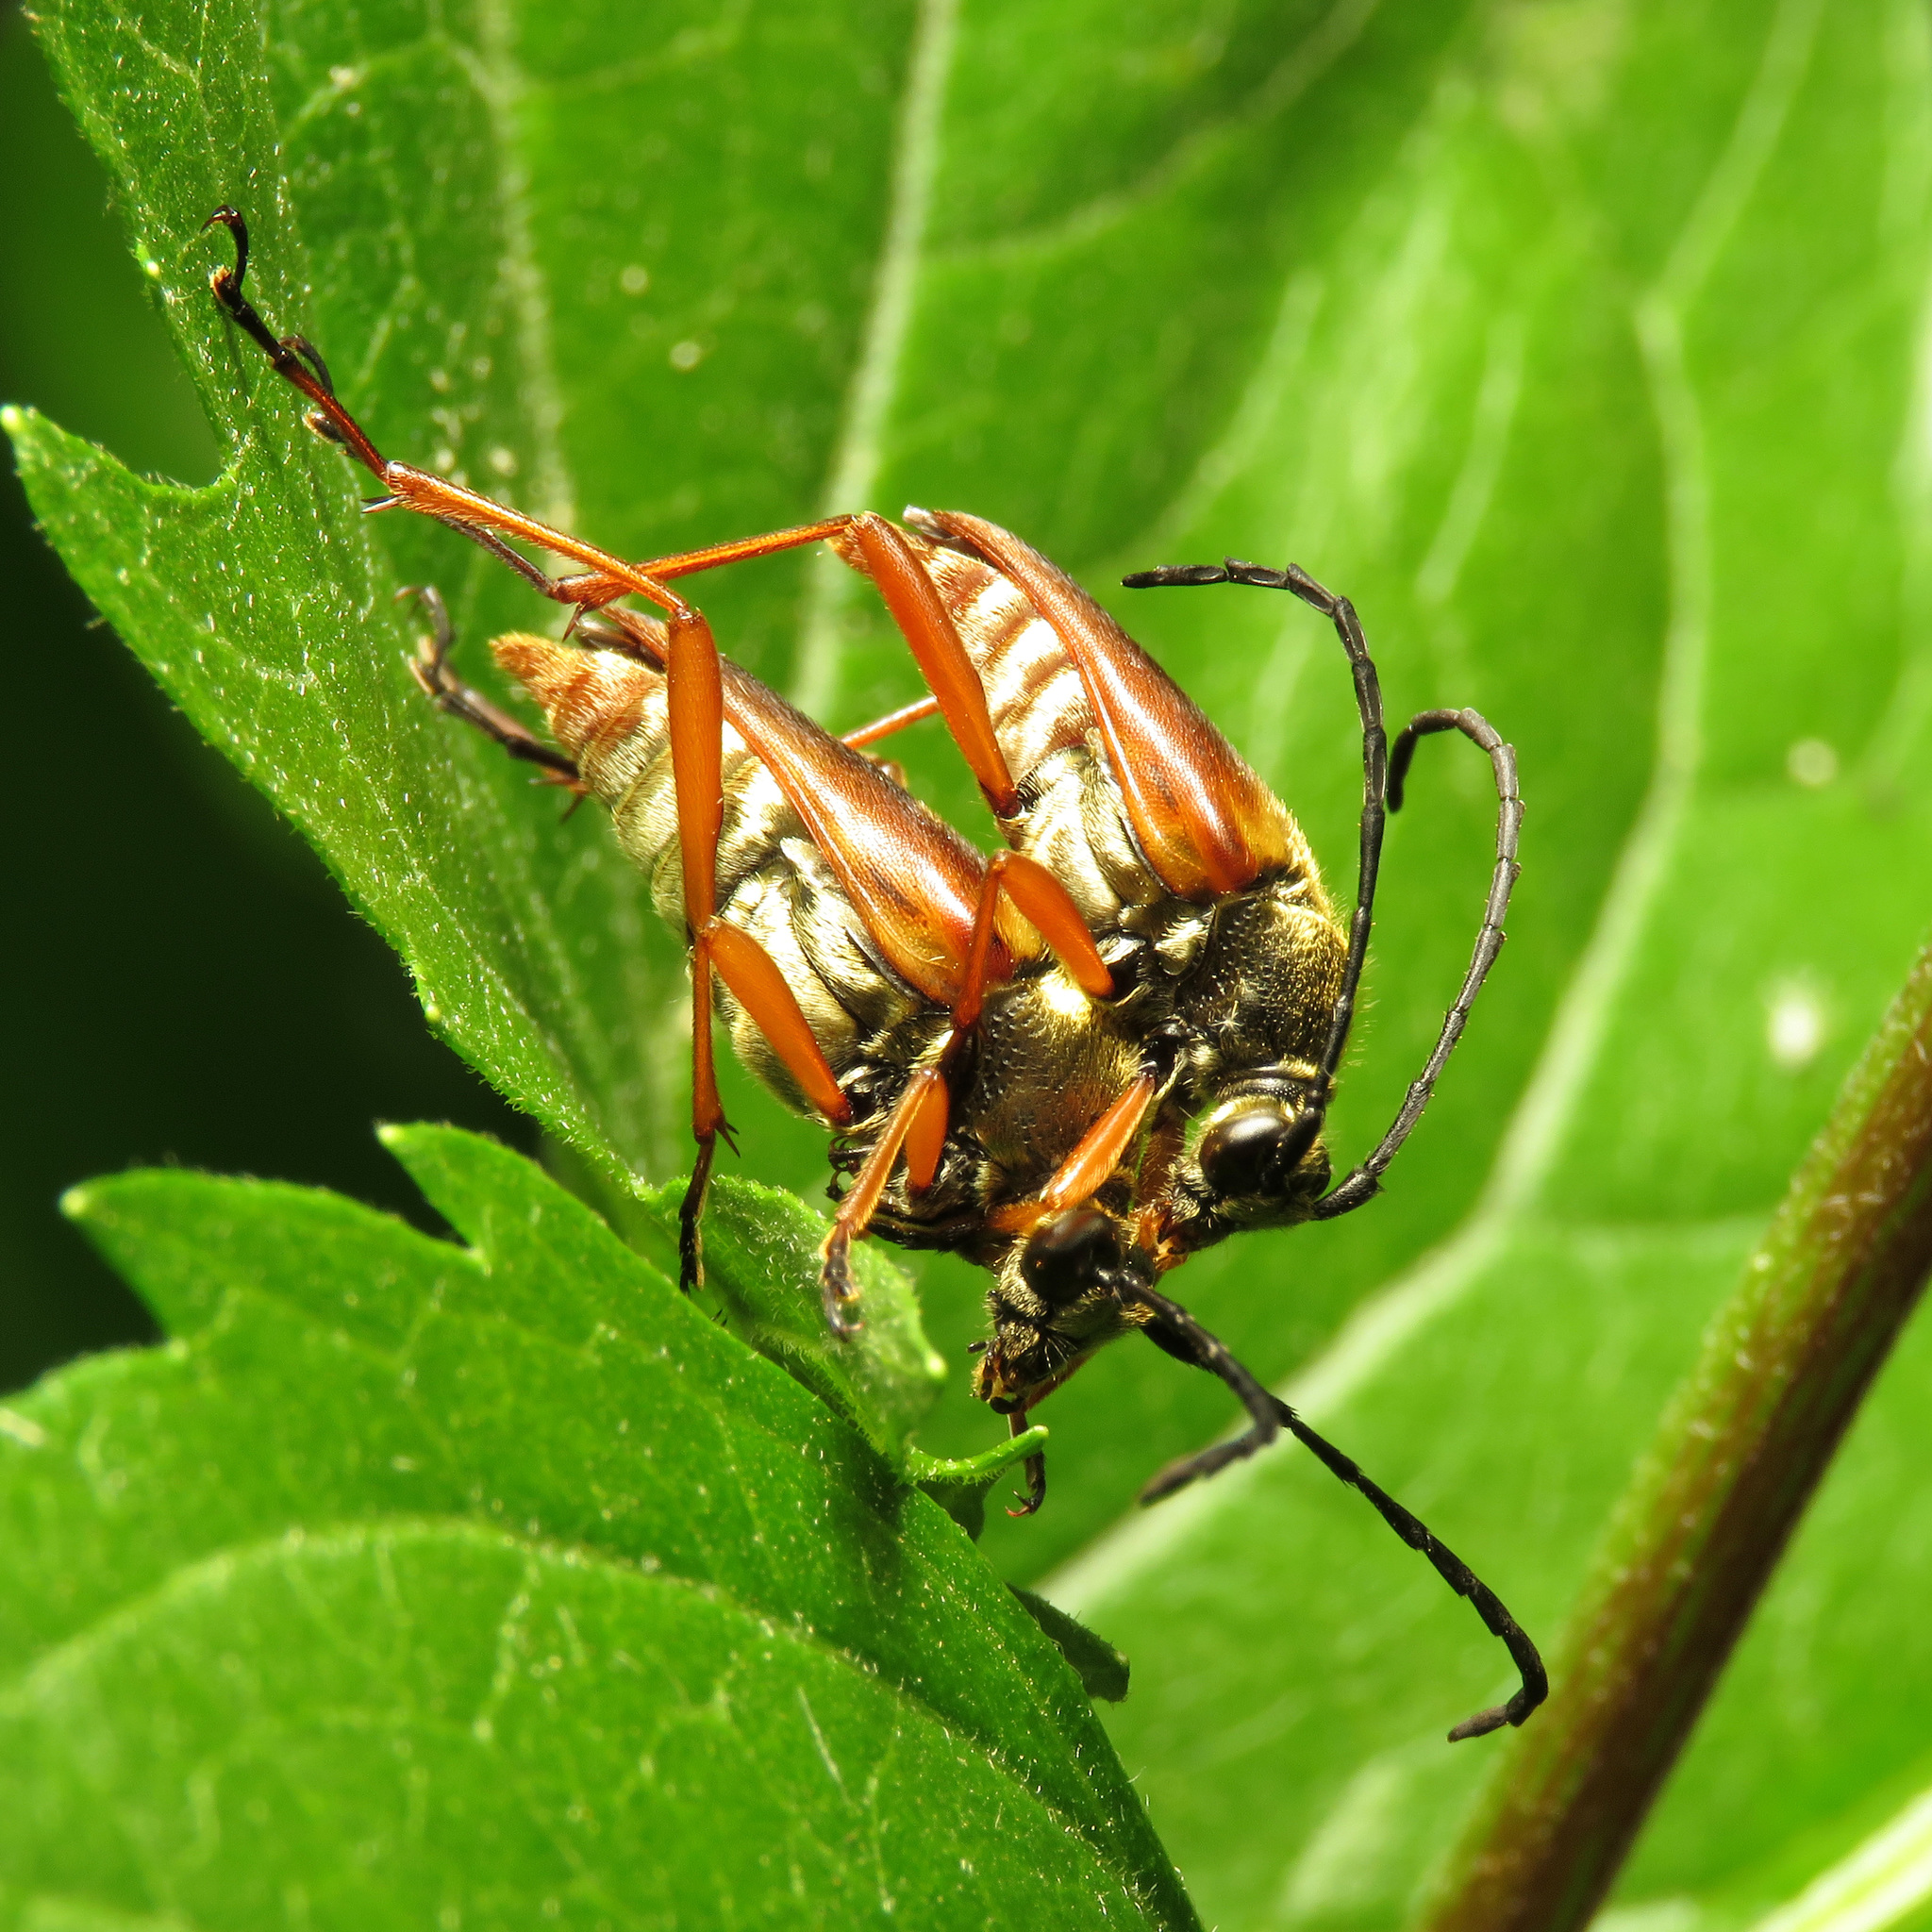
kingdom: Animalia
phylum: Arthropoda
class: Insecta
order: Coleoptera
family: Cerambycidae
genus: Typocerus
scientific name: Typocerus acuticauda
